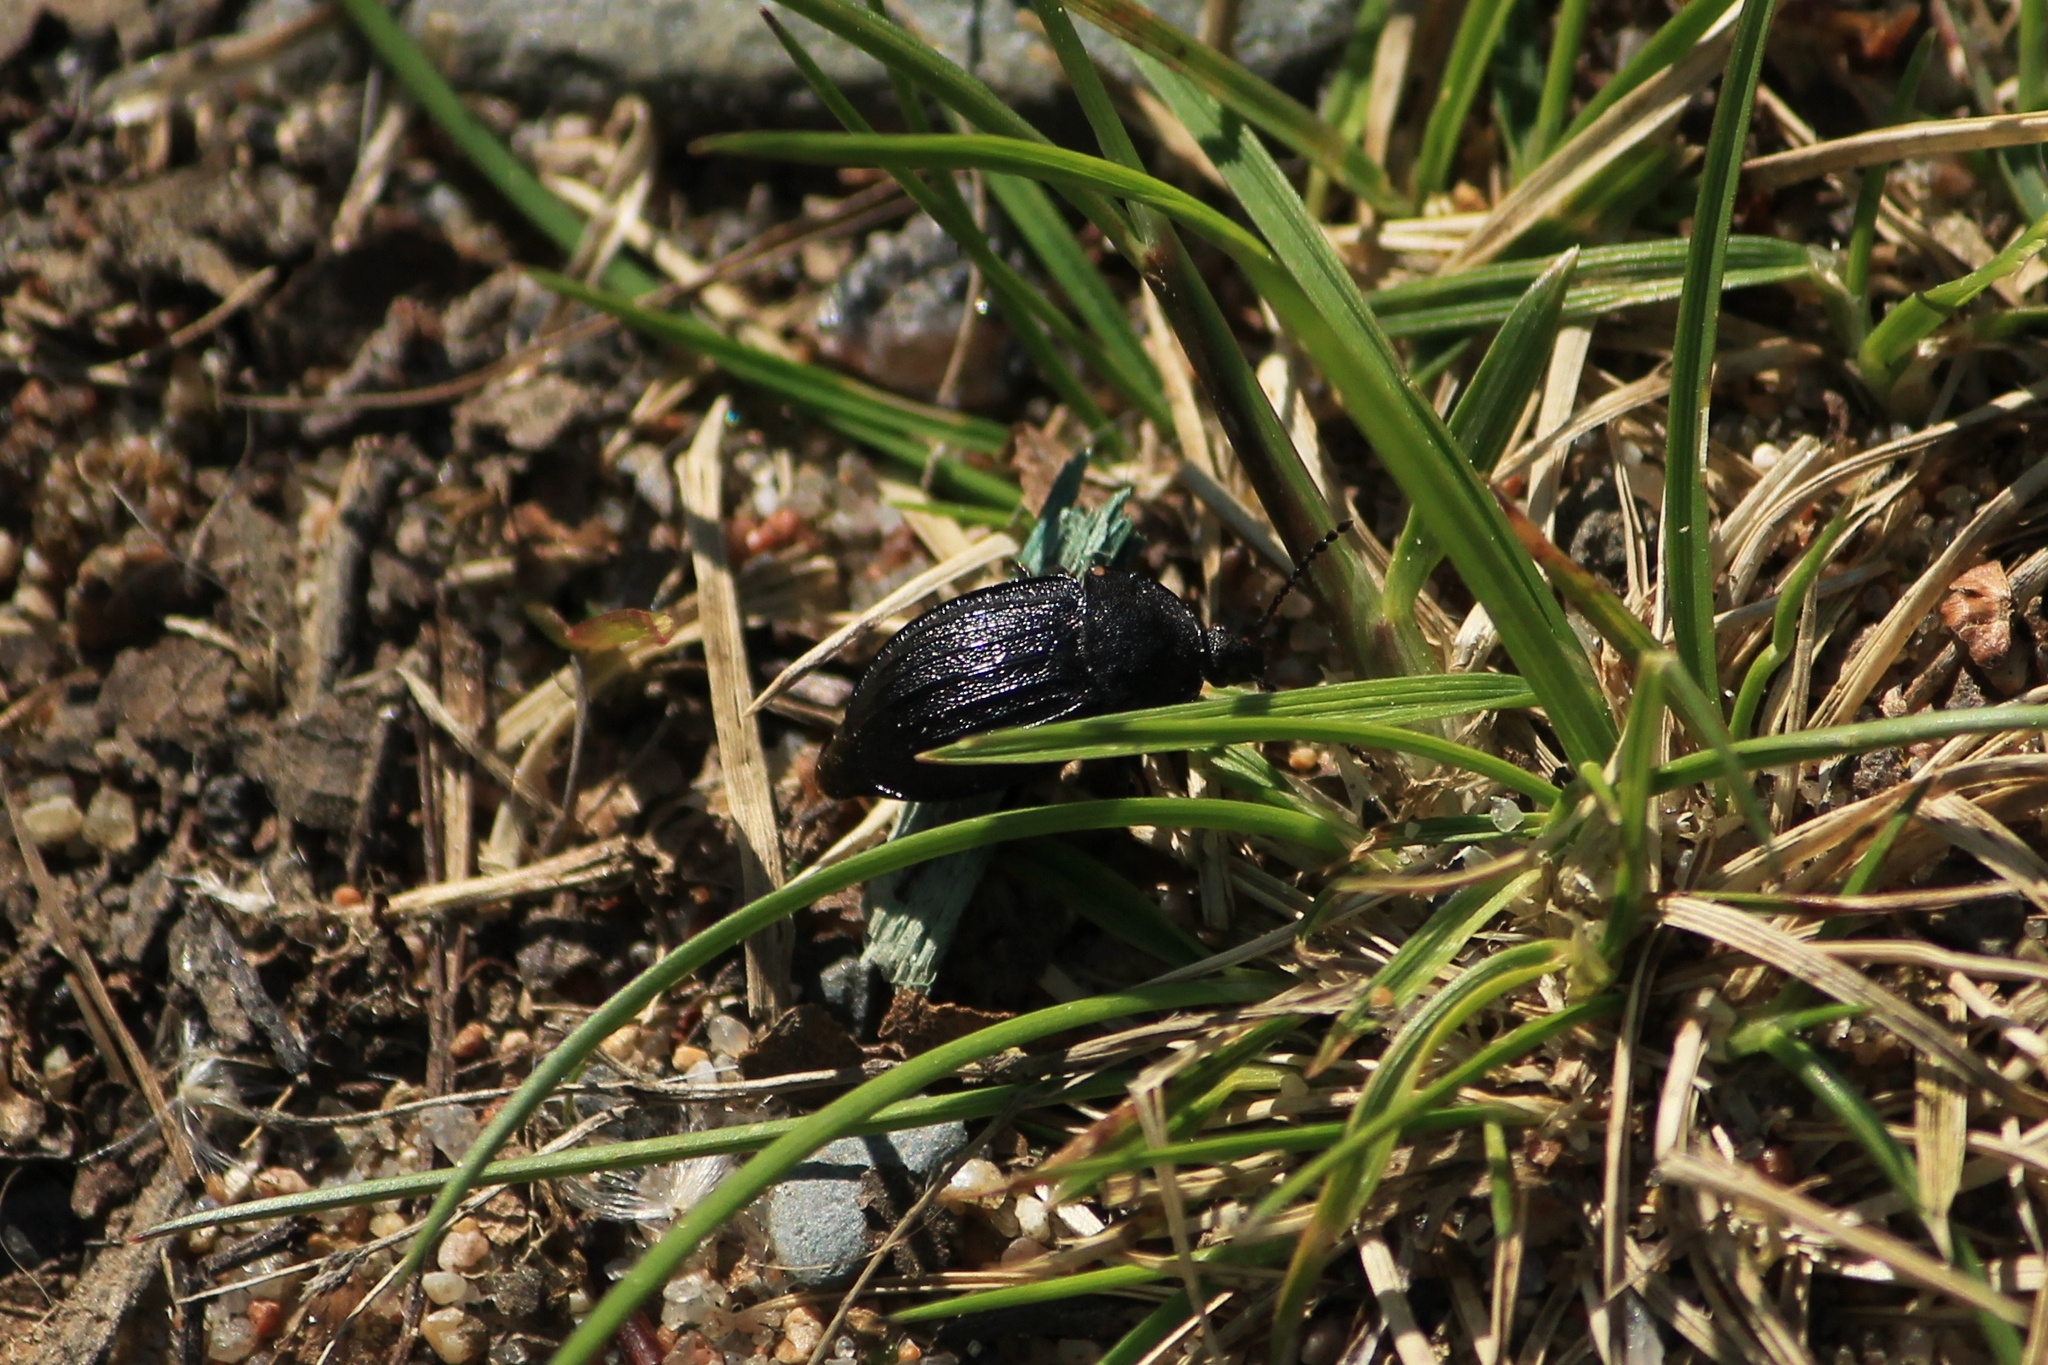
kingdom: Animalia
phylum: Arthropoda
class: Insecta
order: Coleoptera
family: Staphylinidae
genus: Silpha
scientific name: Silpha atrata
